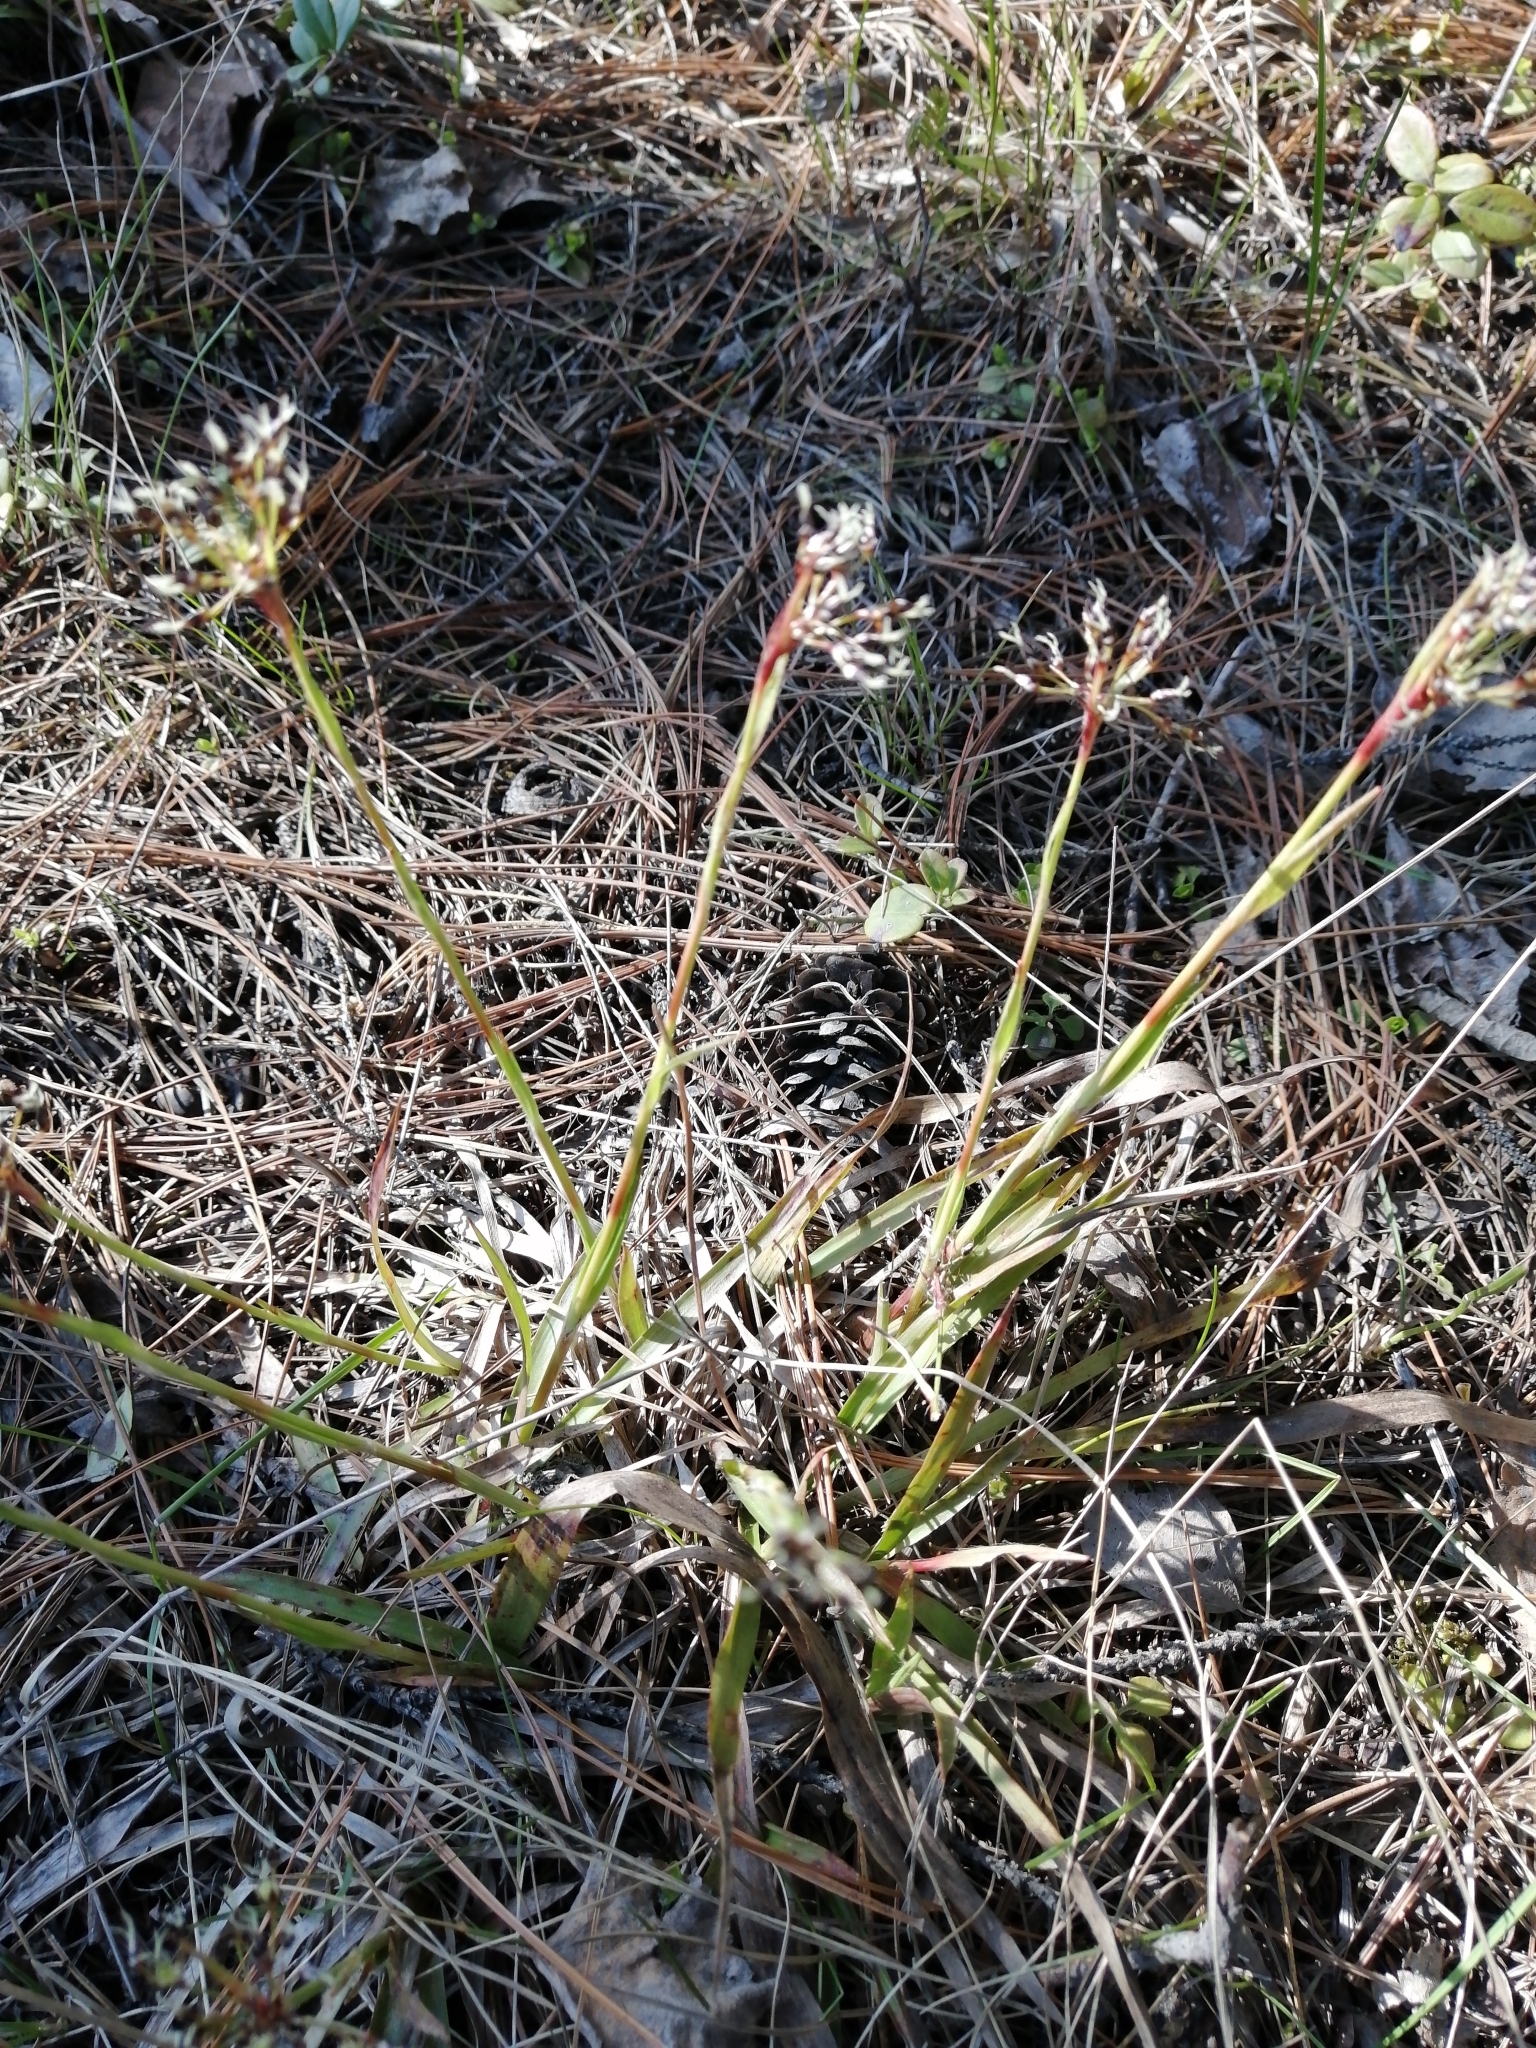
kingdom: Plantae
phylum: Tracheophyta
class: Liliopsida
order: Poales
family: Juncaceae
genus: Luzula
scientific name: Luzula pilosa
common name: Hairy wood-rush
